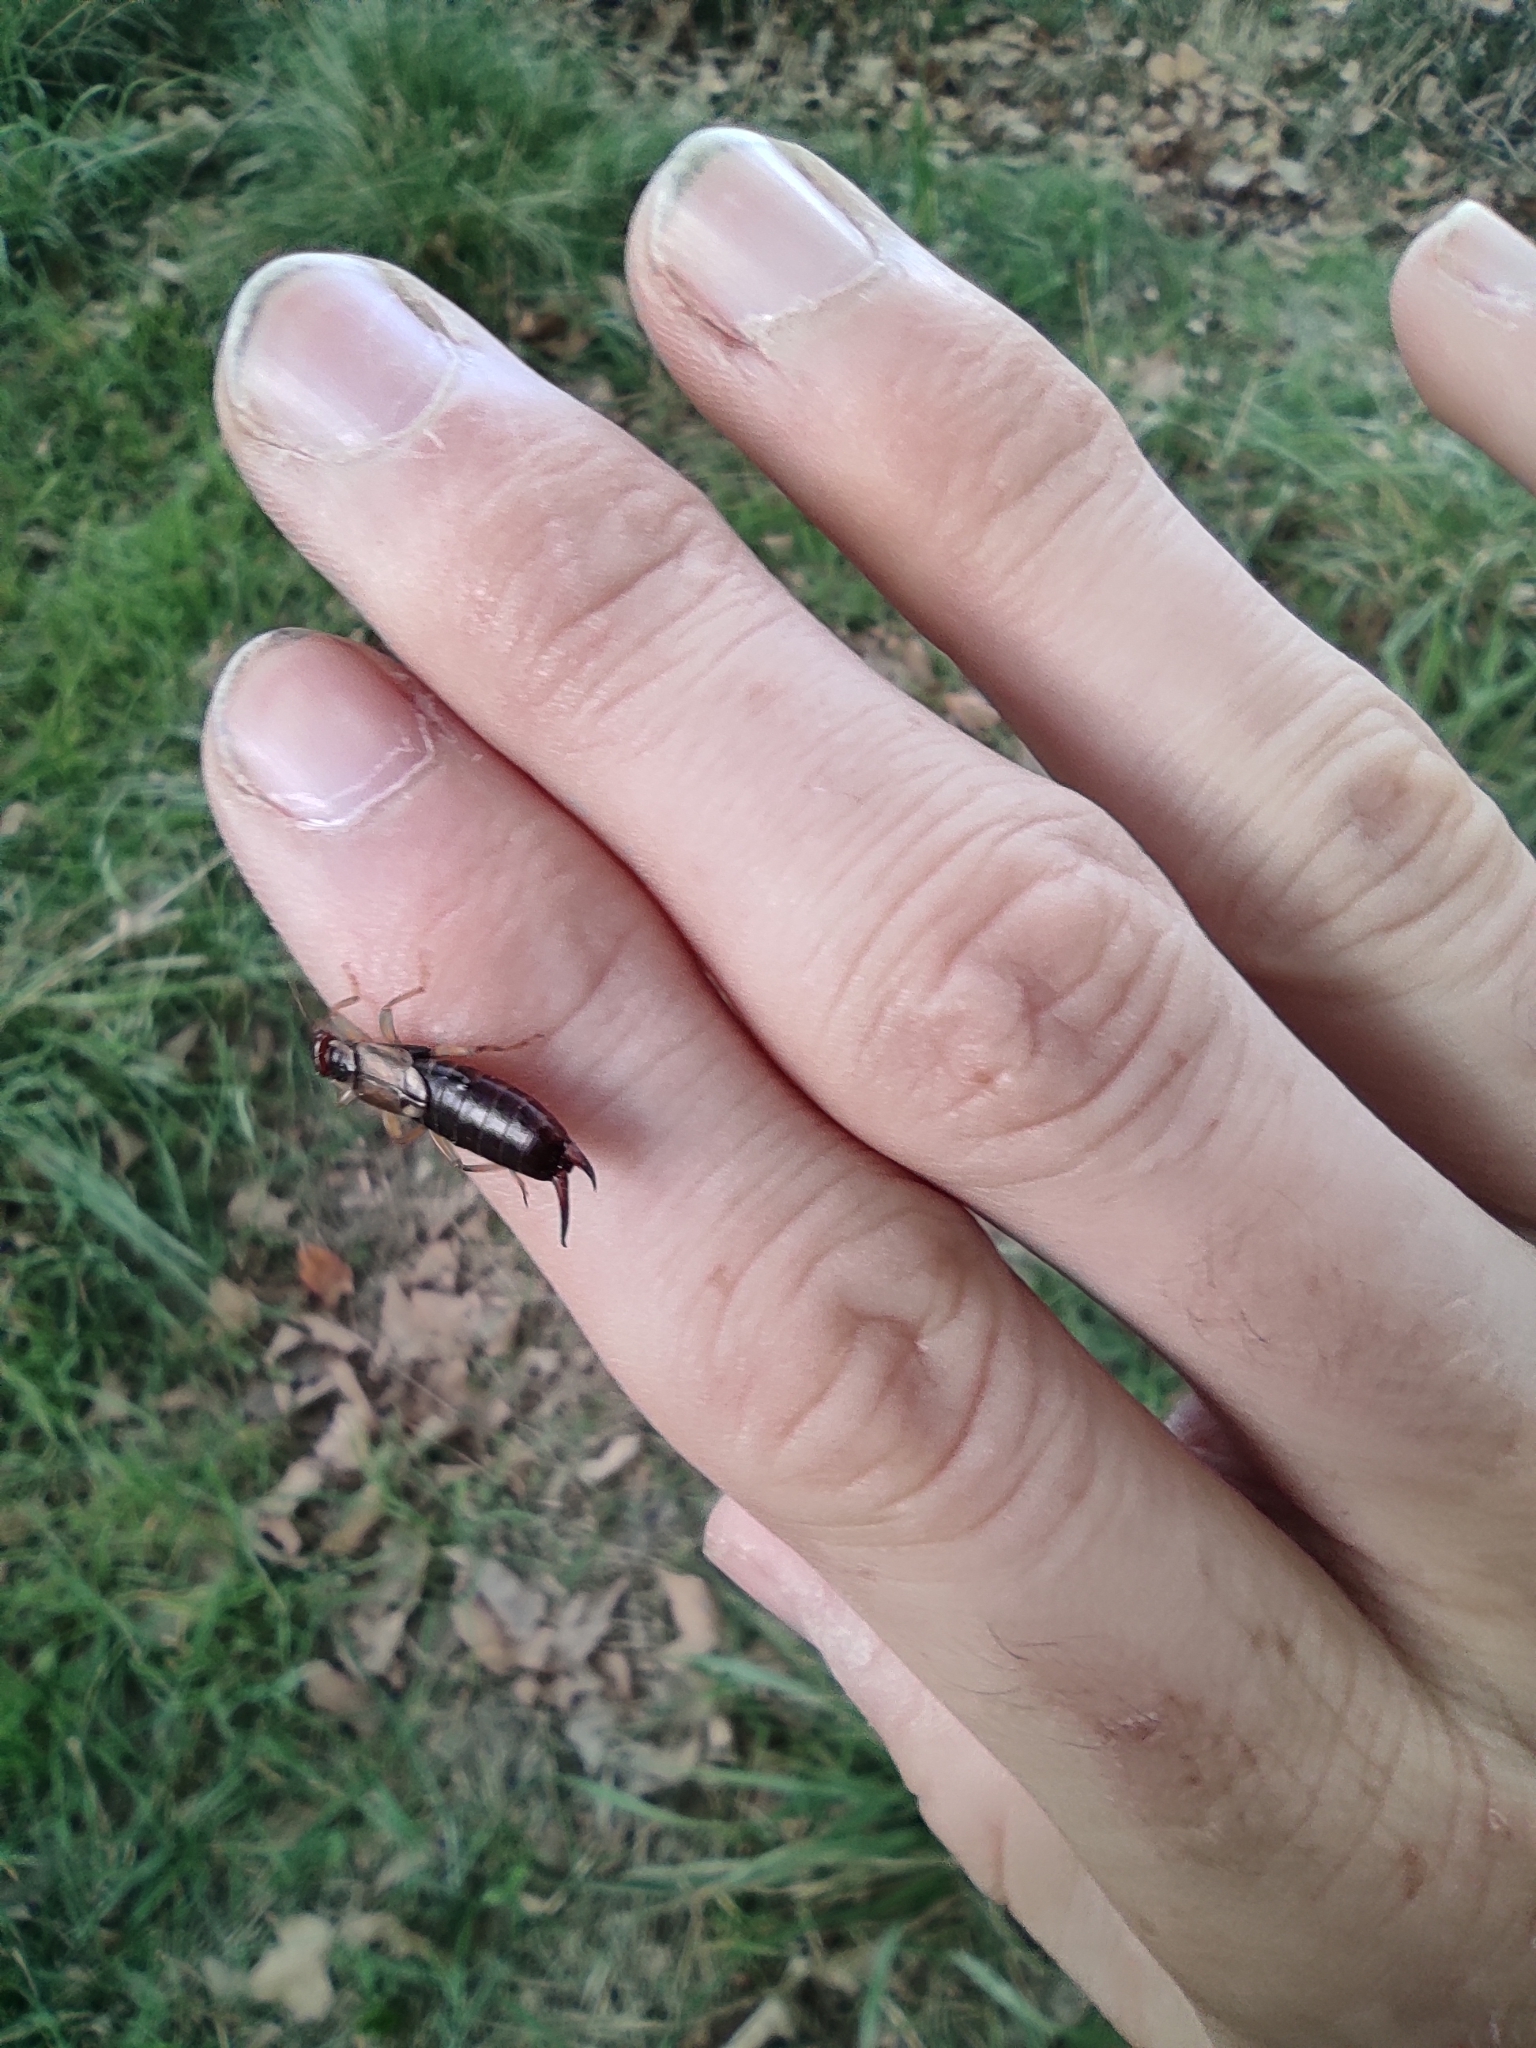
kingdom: Animalia
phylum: Arthropoda
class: Insecta
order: Dermaptera
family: Forficulidae
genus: Forficula
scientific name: Forficula
